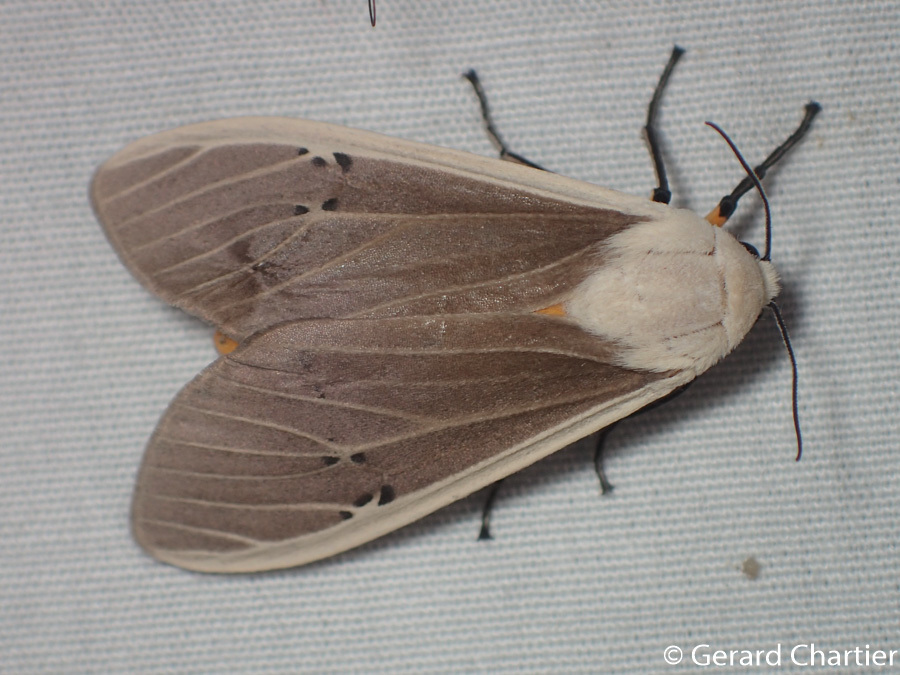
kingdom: Animalia
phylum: Arthropoda
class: Insecta
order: Lepidoptera
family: Erebidae
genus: Creatonotos
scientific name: Creatonotos transiens
